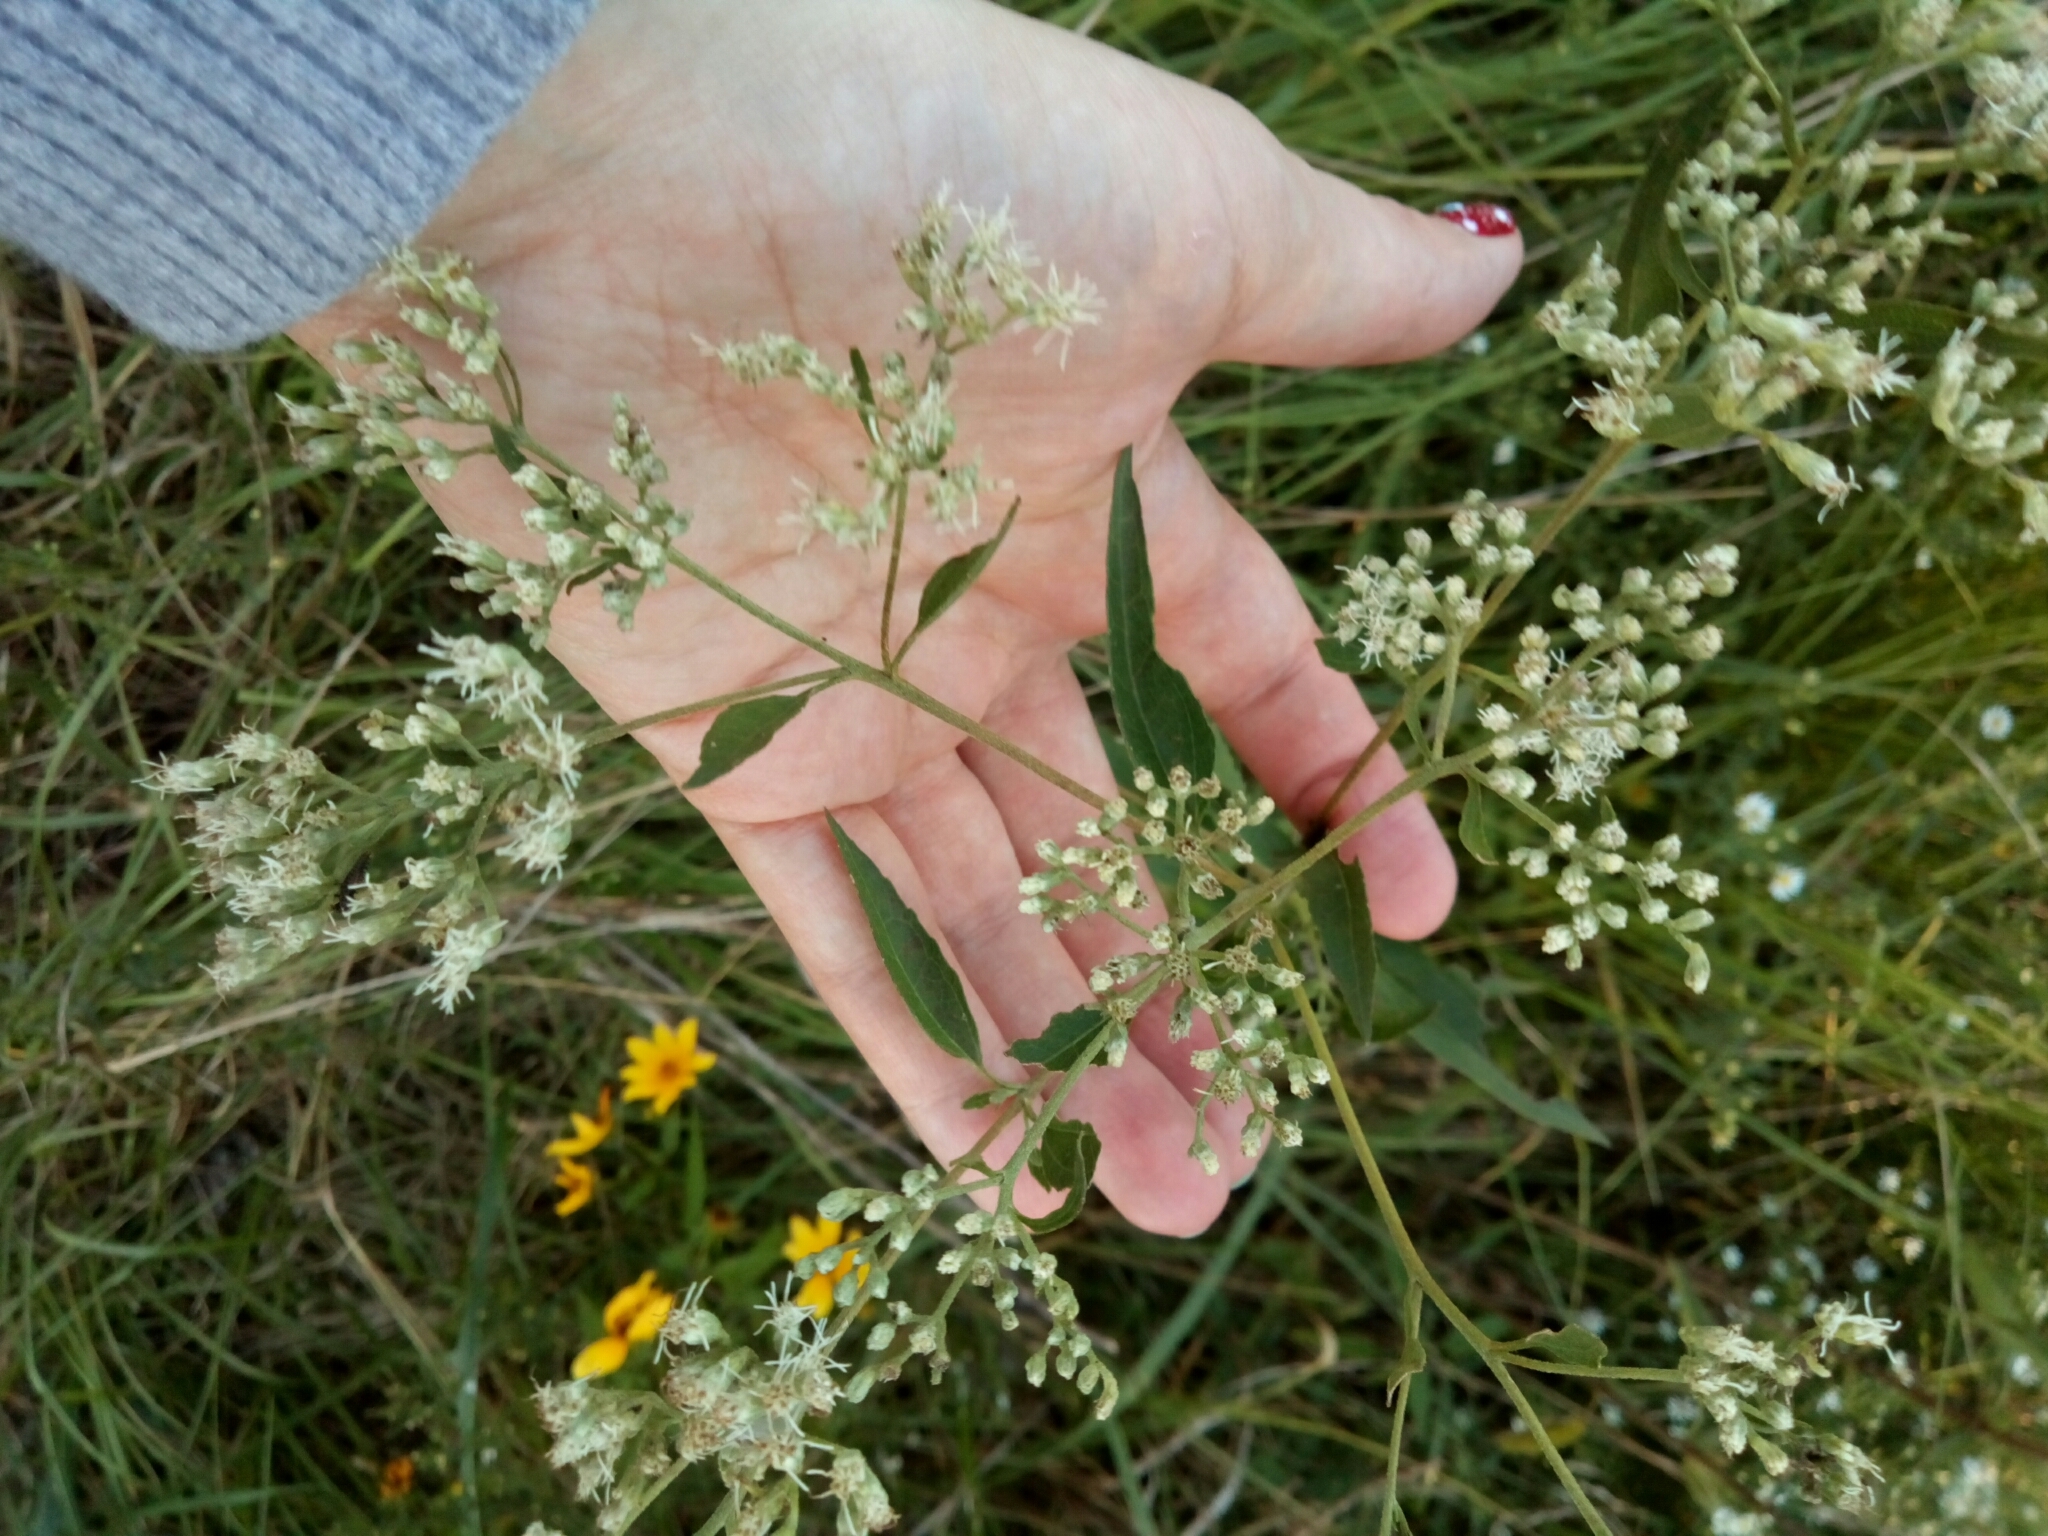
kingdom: Plantae
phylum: Tracheophyta
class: Magnoliopsida
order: Asterales
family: Asteraceae
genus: Eupatorium
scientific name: Eupatorium serotinum
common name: Late boneset
